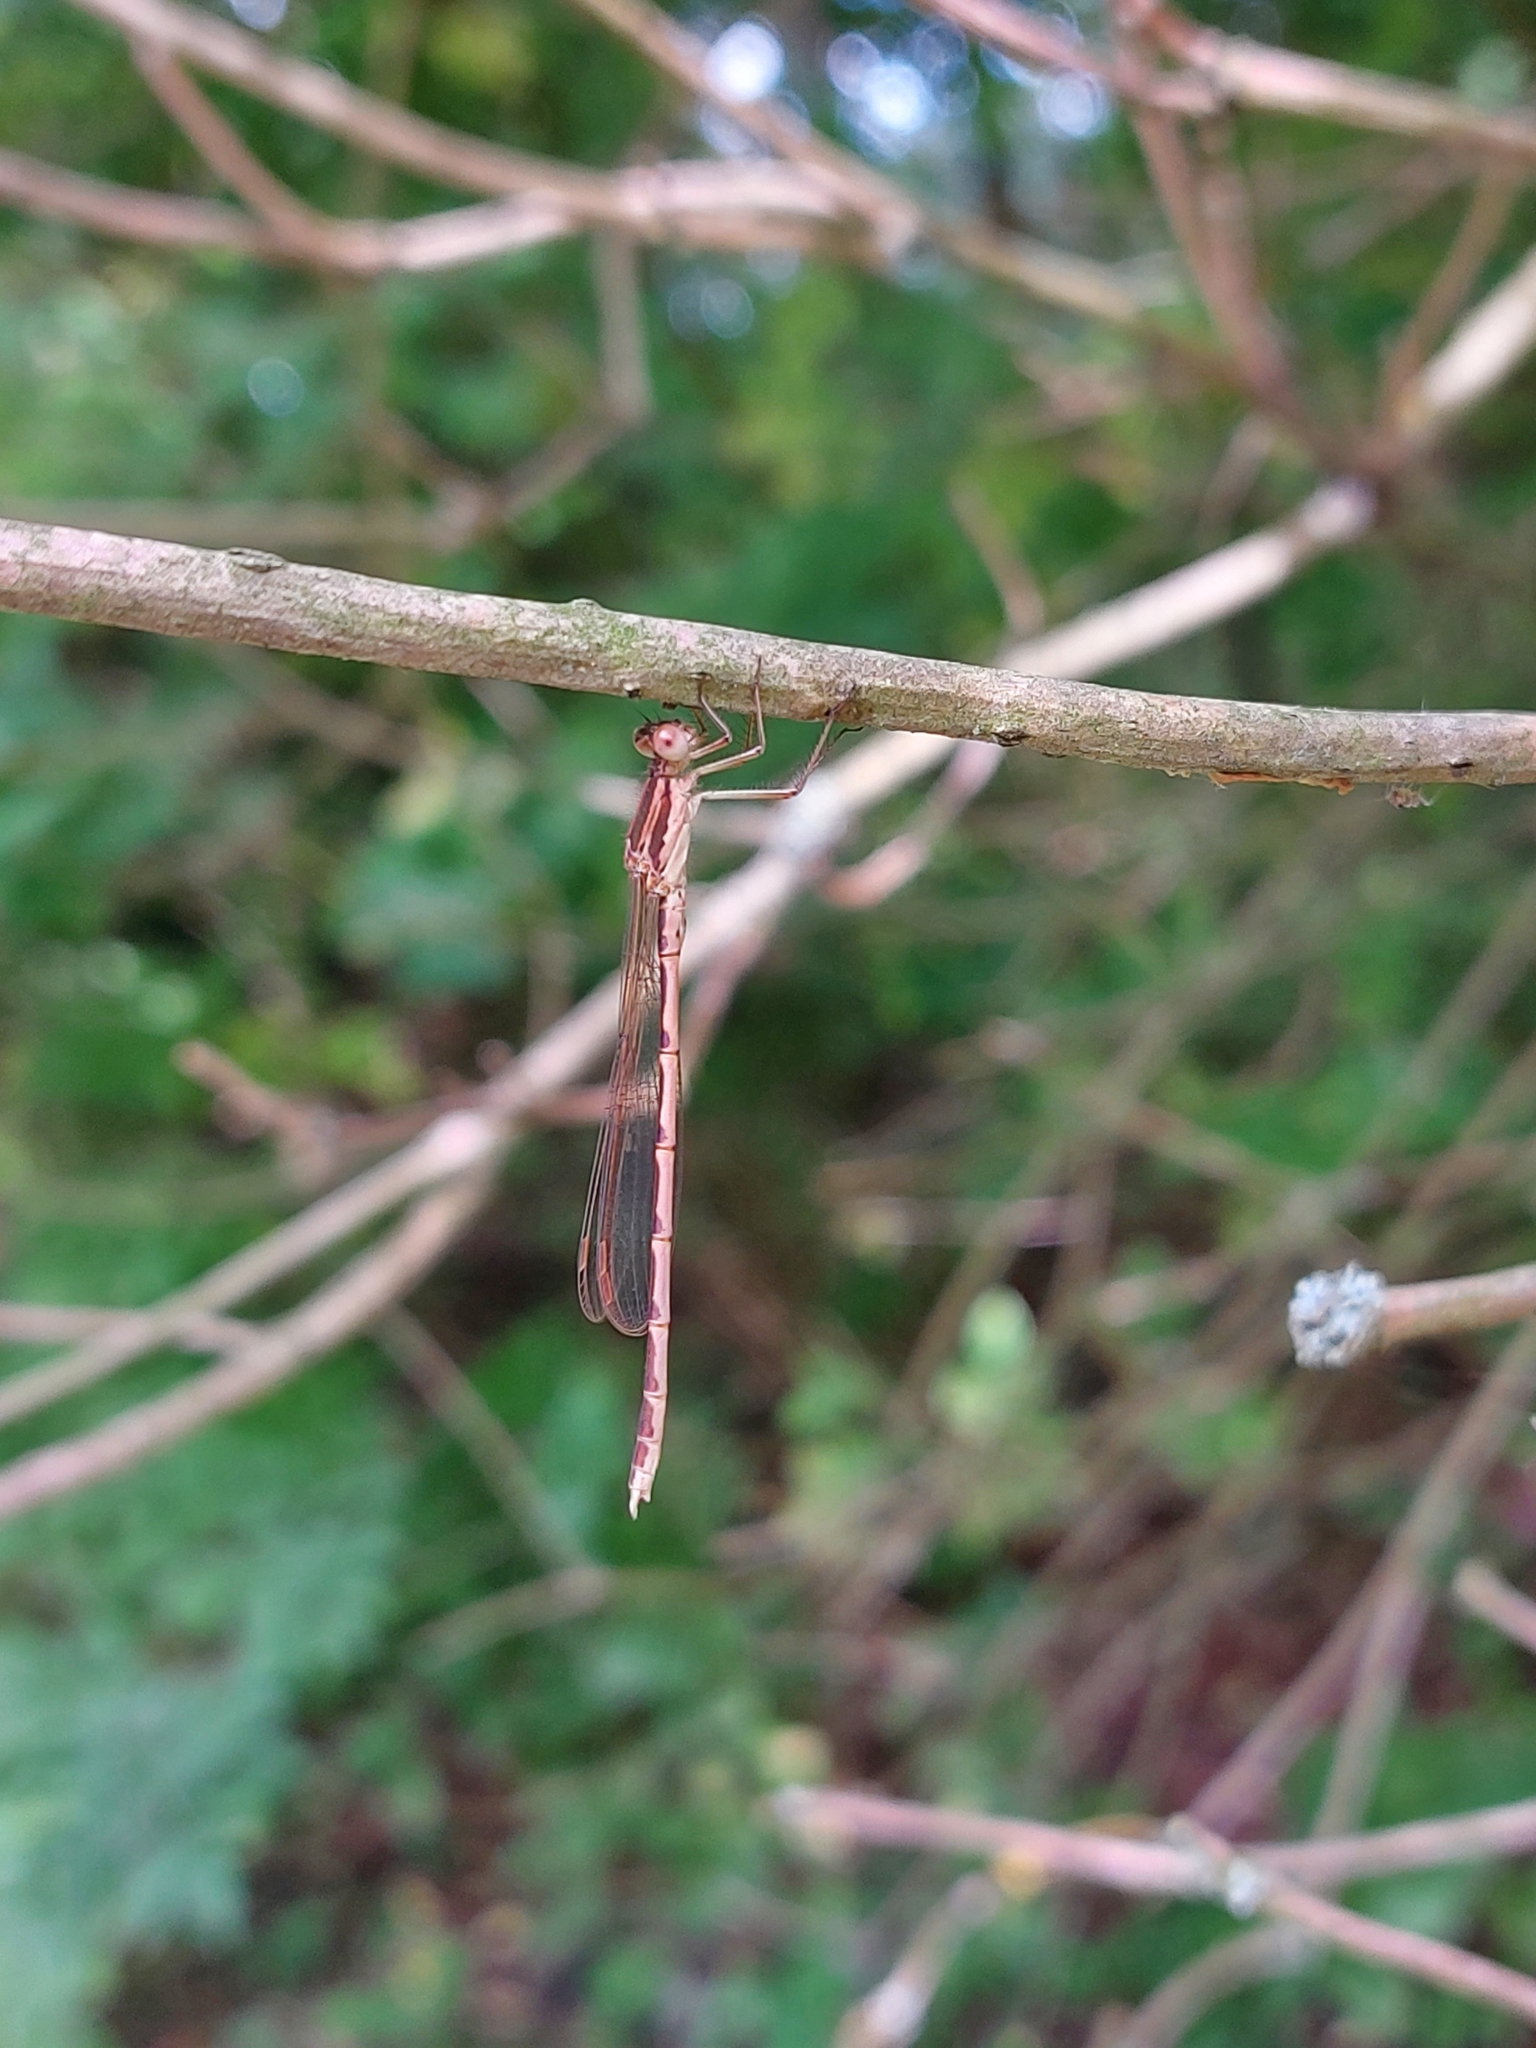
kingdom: Animalia
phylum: Arthropoda
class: Insecta
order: Odonata
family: Lestidae
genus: Sympecma
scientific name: Sympecma fusca
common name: Common winter damsel
